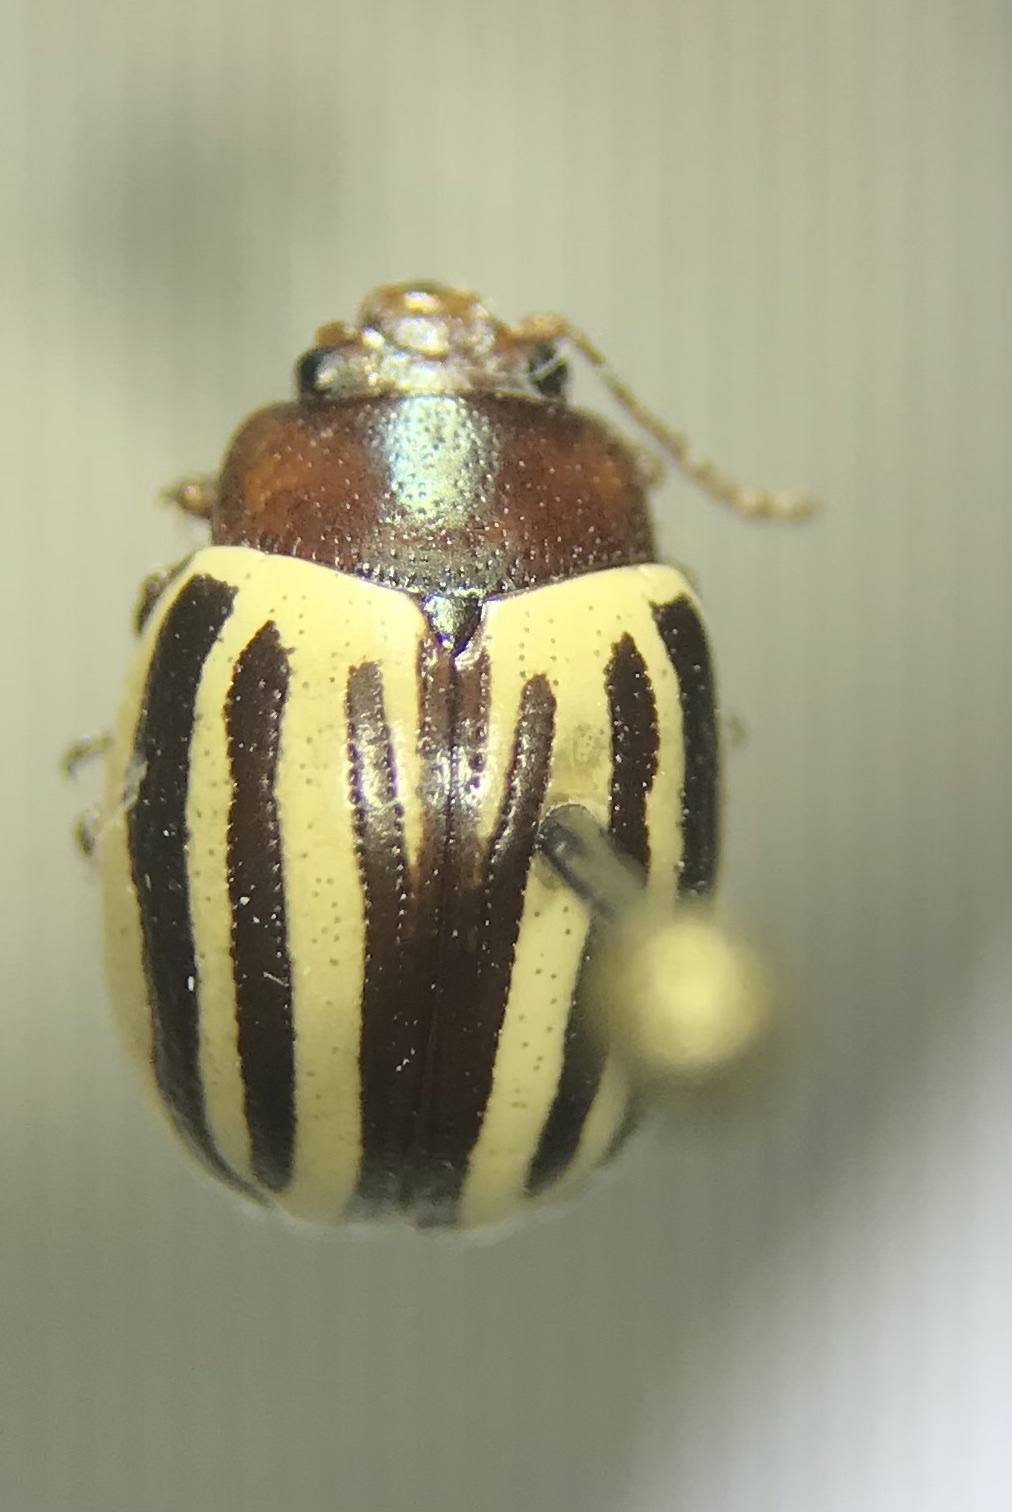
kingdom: Animalia
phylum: Arthropoda
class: Insecta
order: Coleoptera
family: Chrysomelidae
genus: Calligrapha
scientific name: Calligrapha
